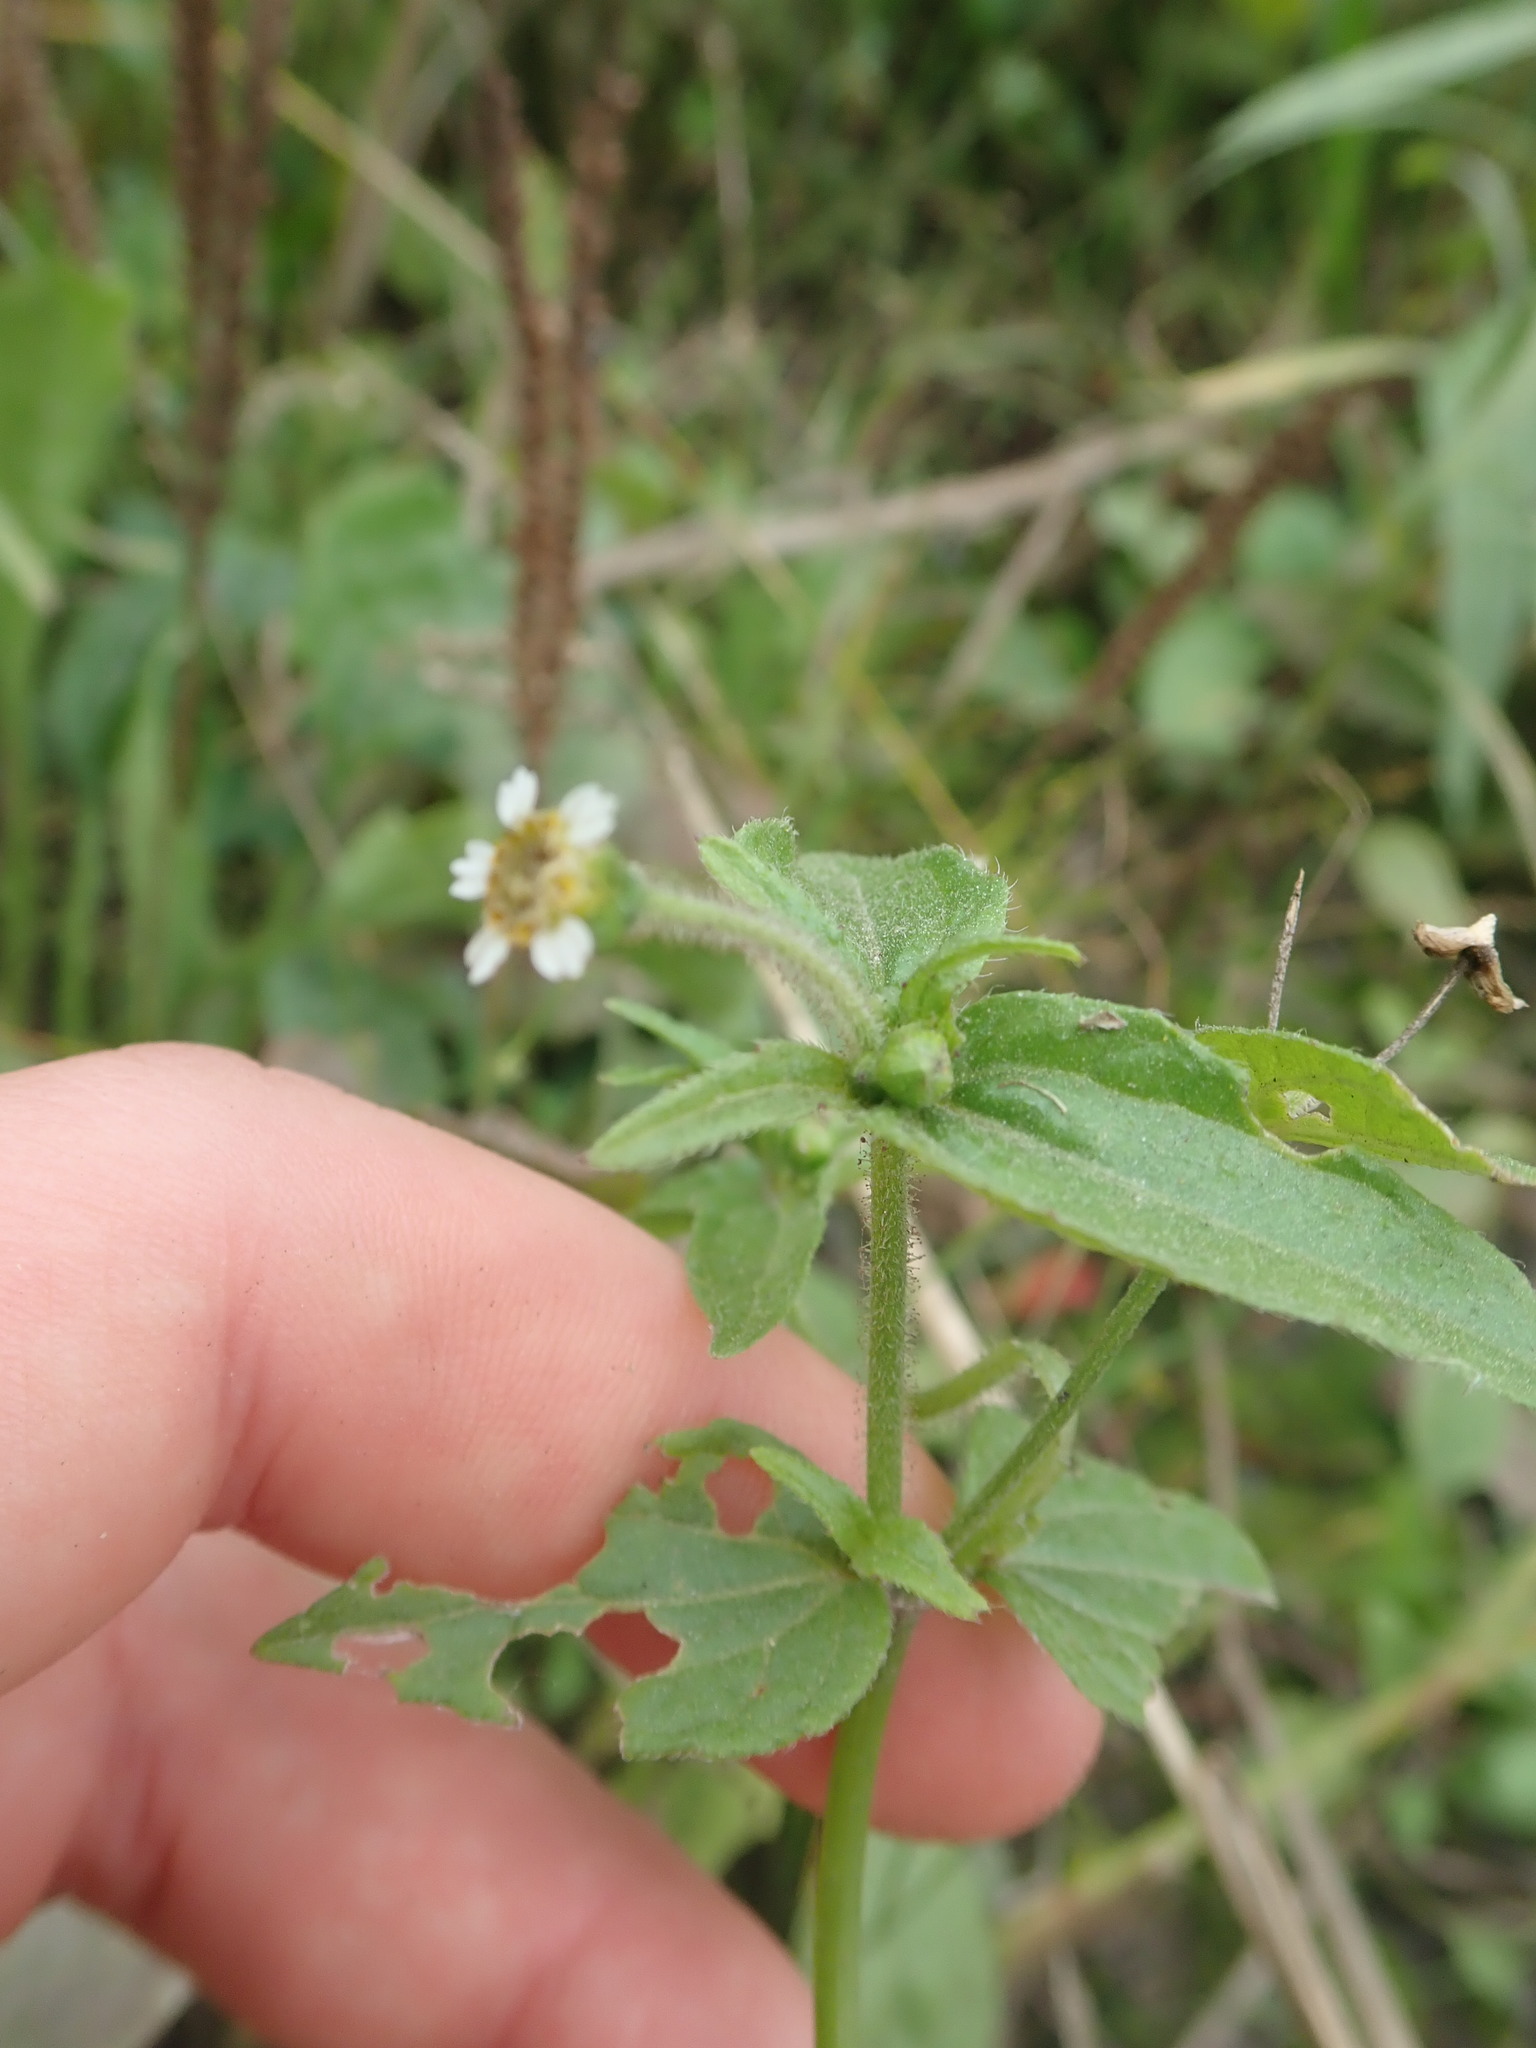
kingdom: Plantae
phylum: Tracheophyta
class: Magnoliopsida
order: Asterales
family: Asteraceae
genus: Galinsoga
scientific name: Galinsoga quadriradiata
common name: Shaggy soldier
